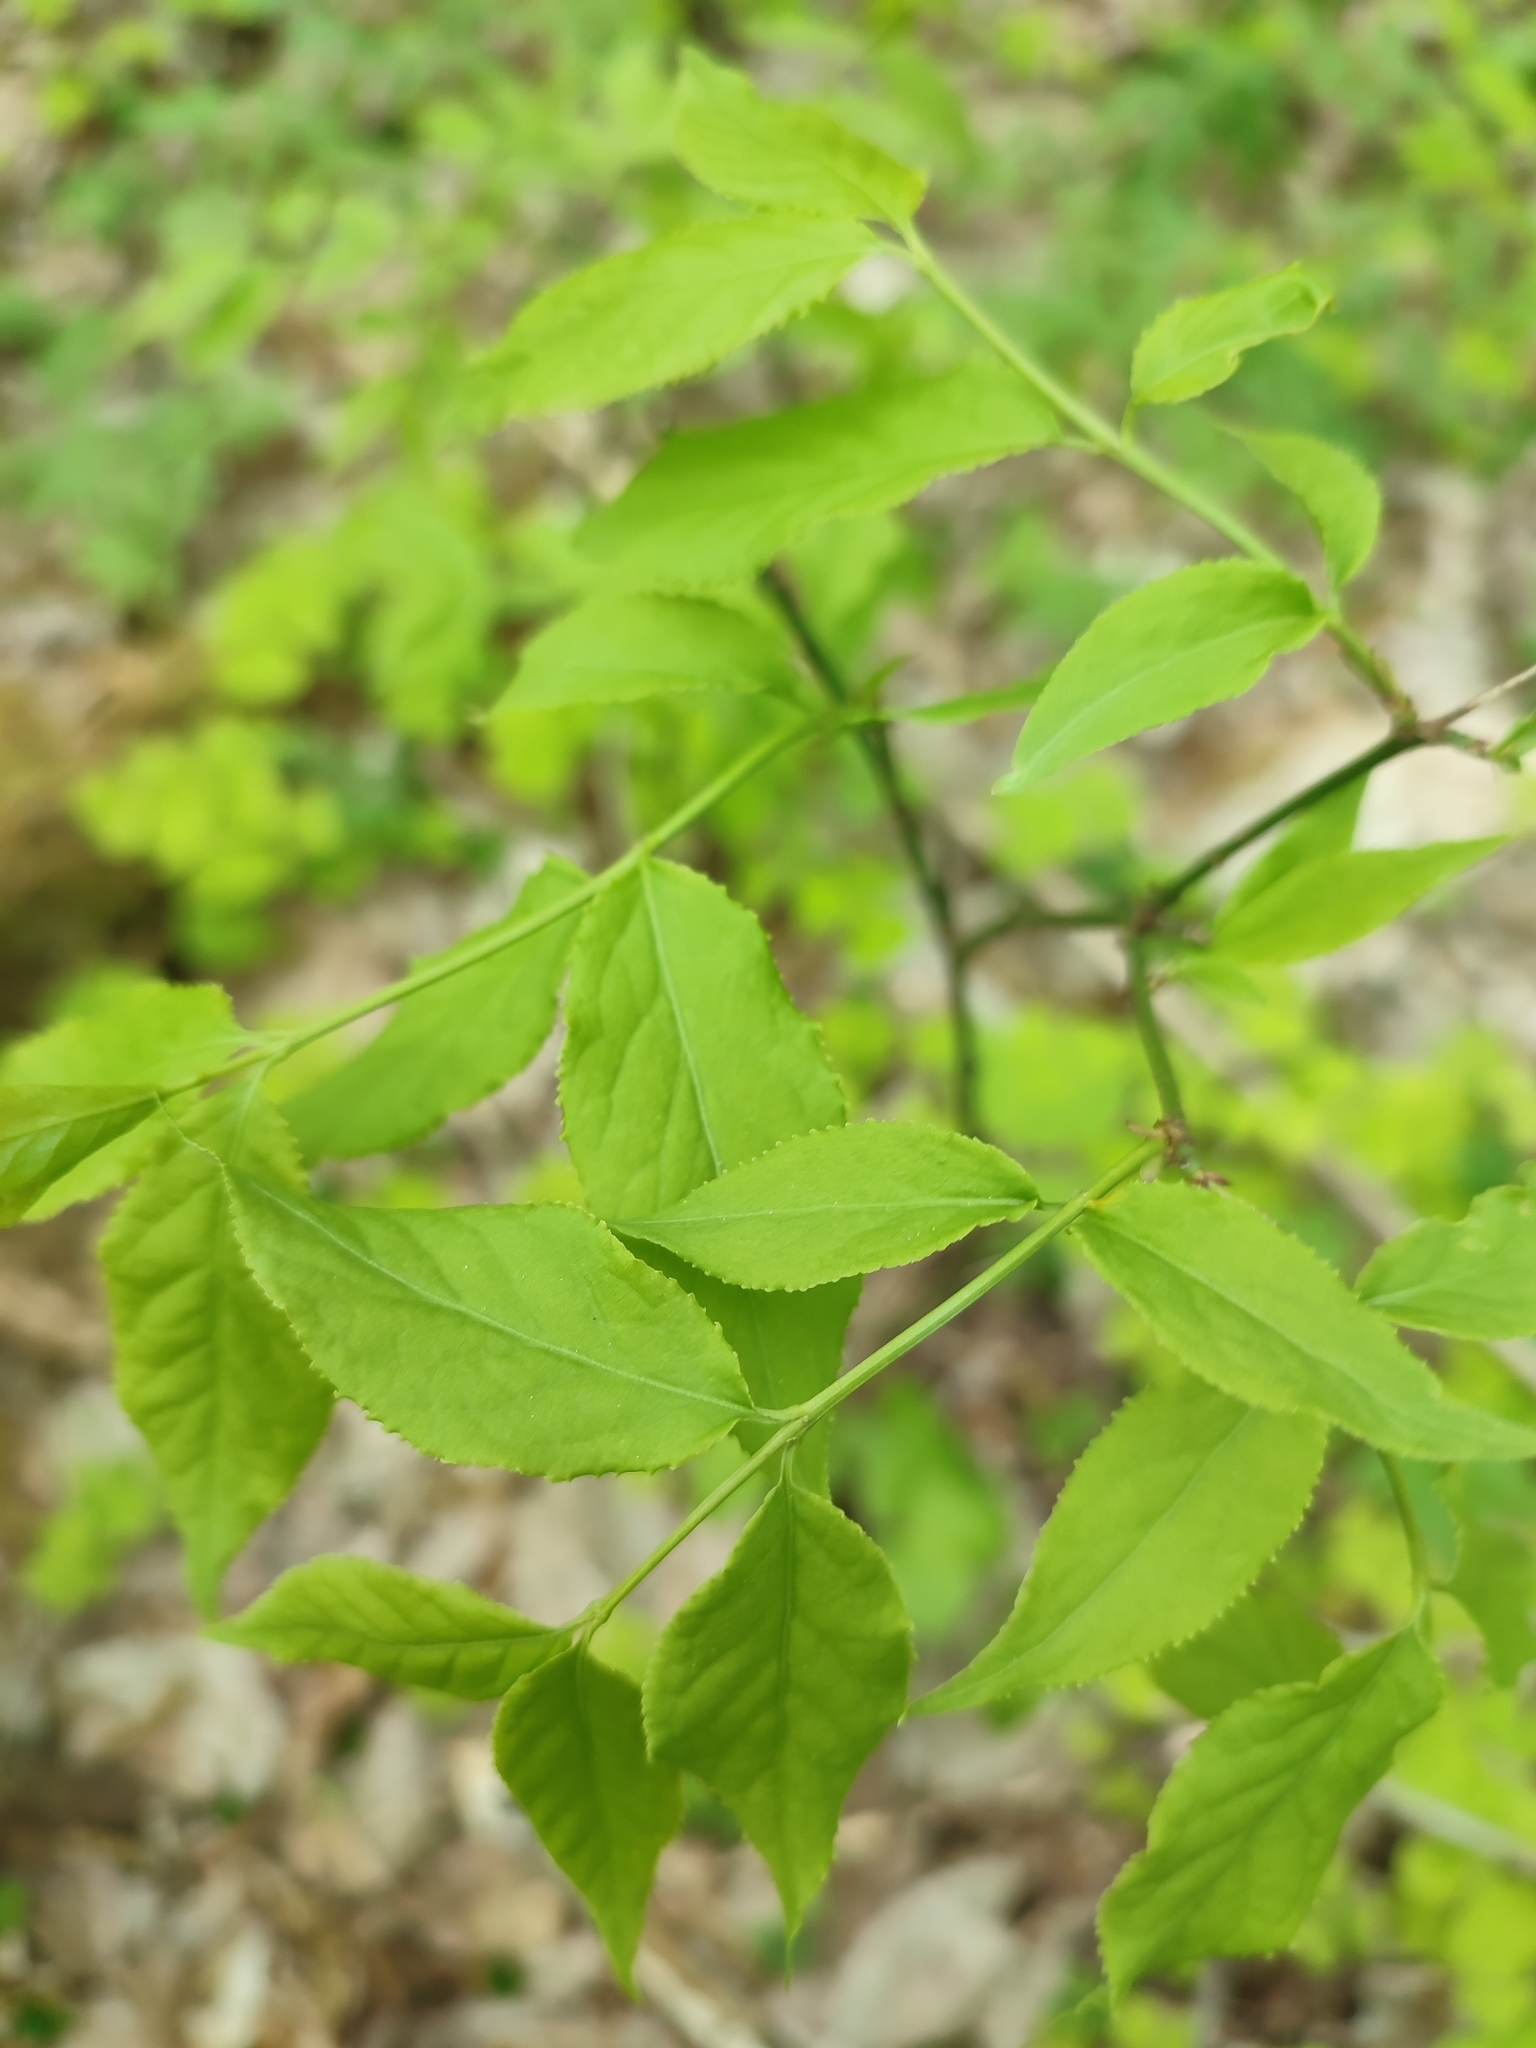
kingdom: Plantae
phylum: Tracheophyta
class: Magnoliopsida
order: Celastrales
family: Celastraceae
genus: Euonymus
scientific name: Euonymus verrucosus
